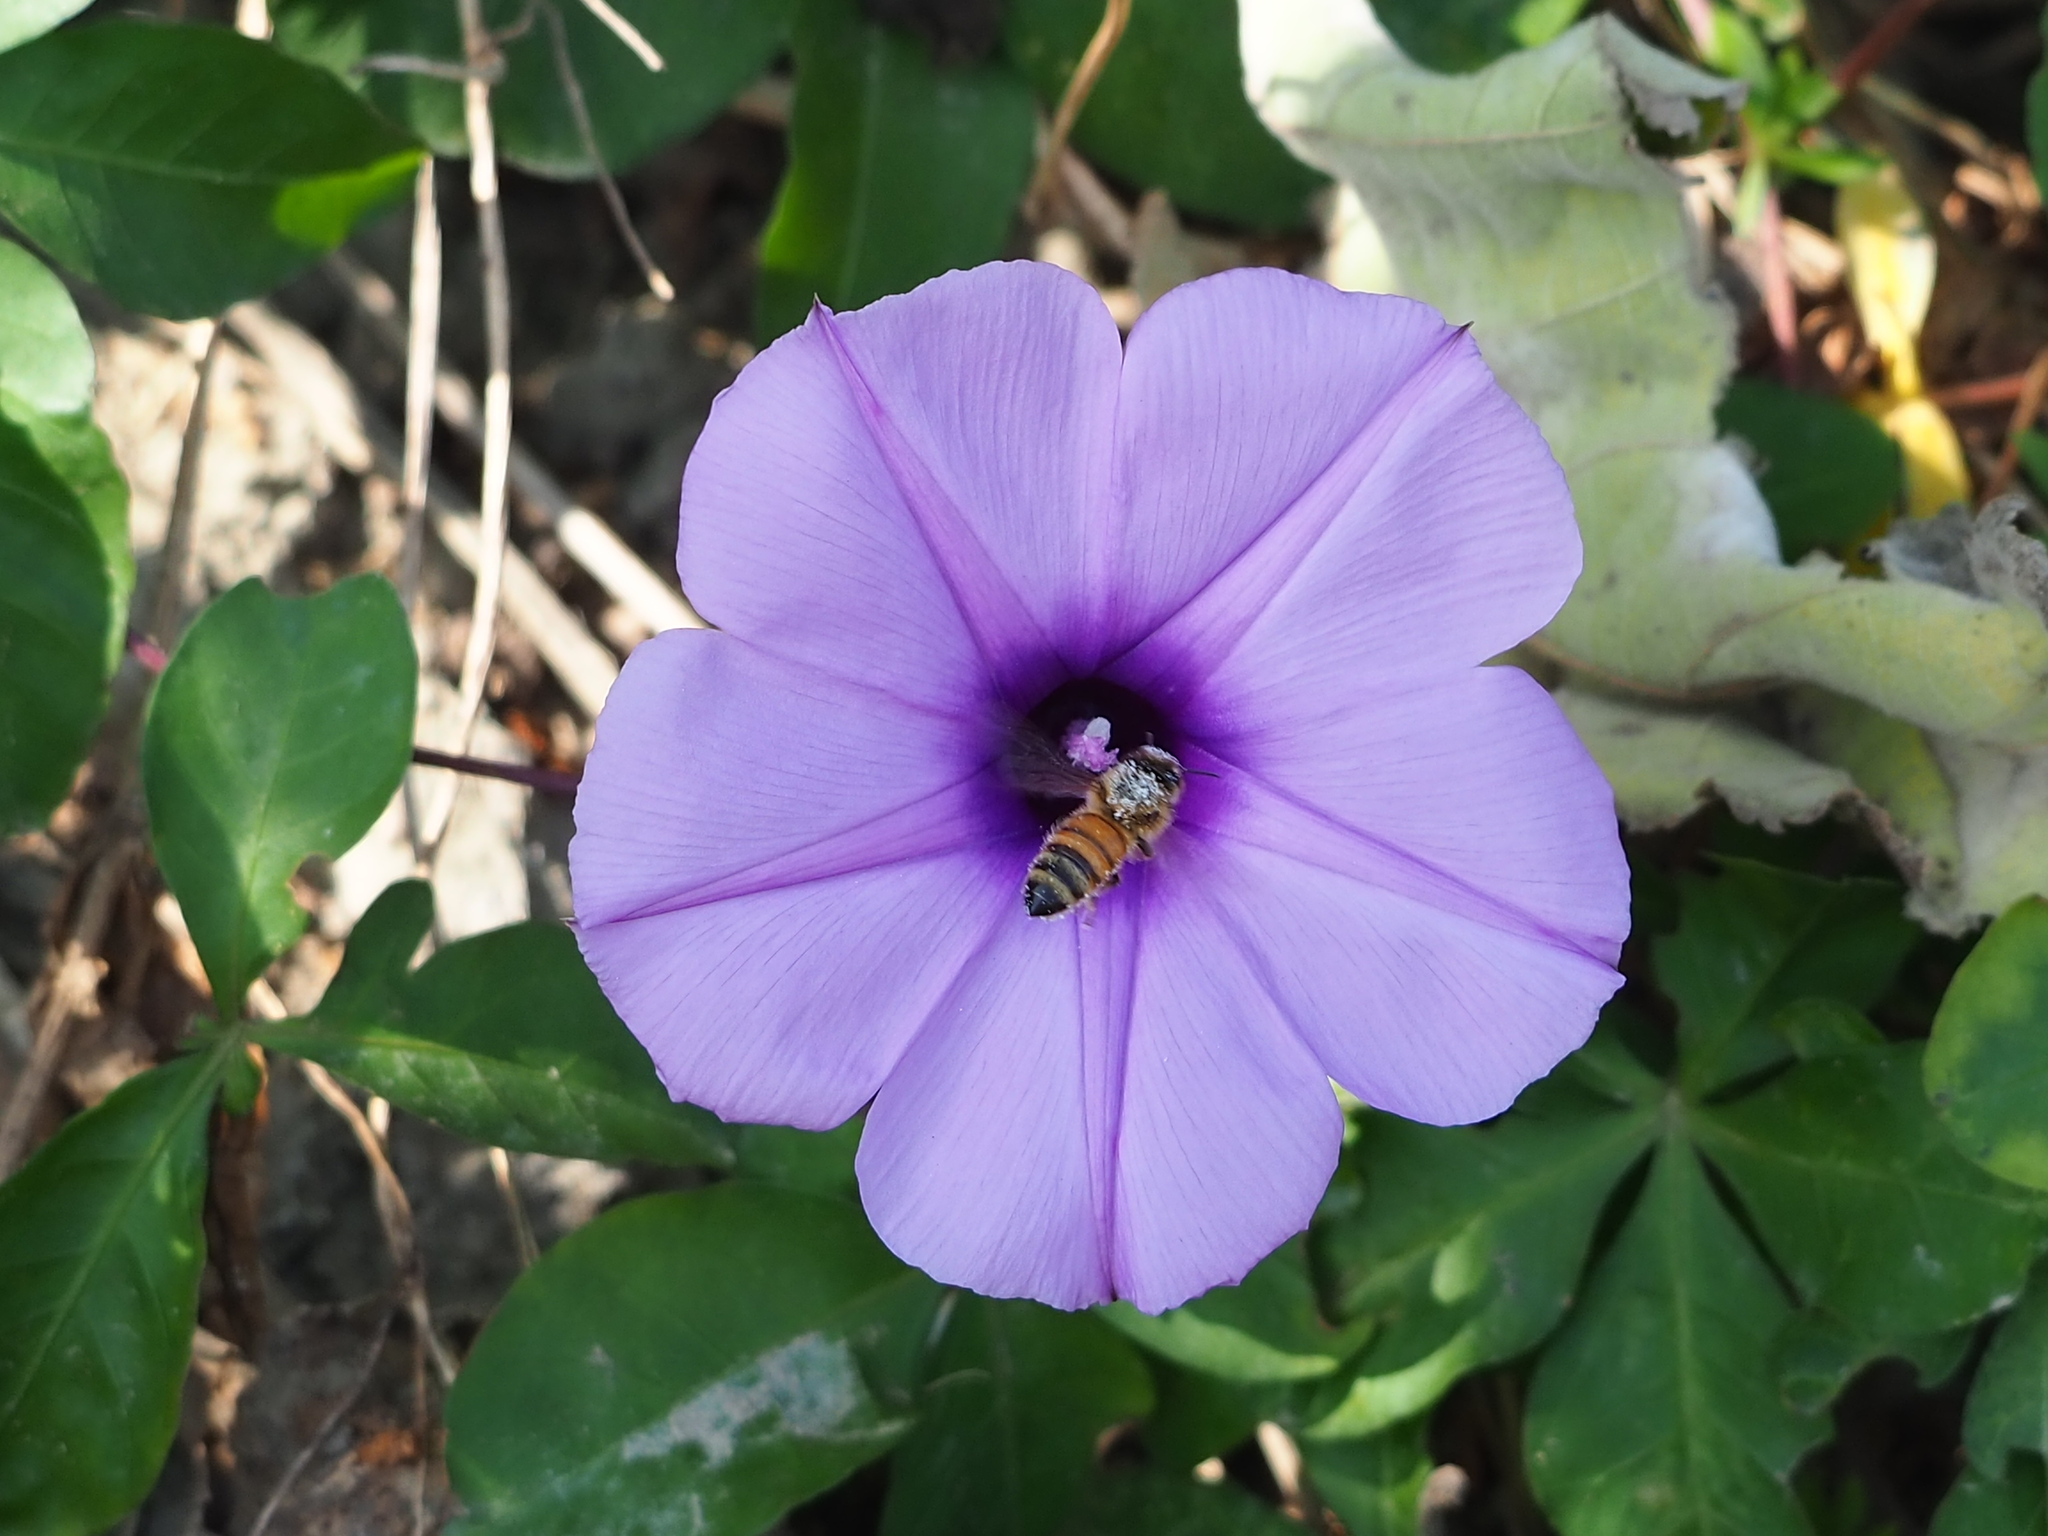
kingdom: Animalia
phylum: Arthropoda
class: Insecta
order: Hymenoptera
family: Apidae
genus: Apis
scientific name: Apis mellifera
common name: Honey bee
